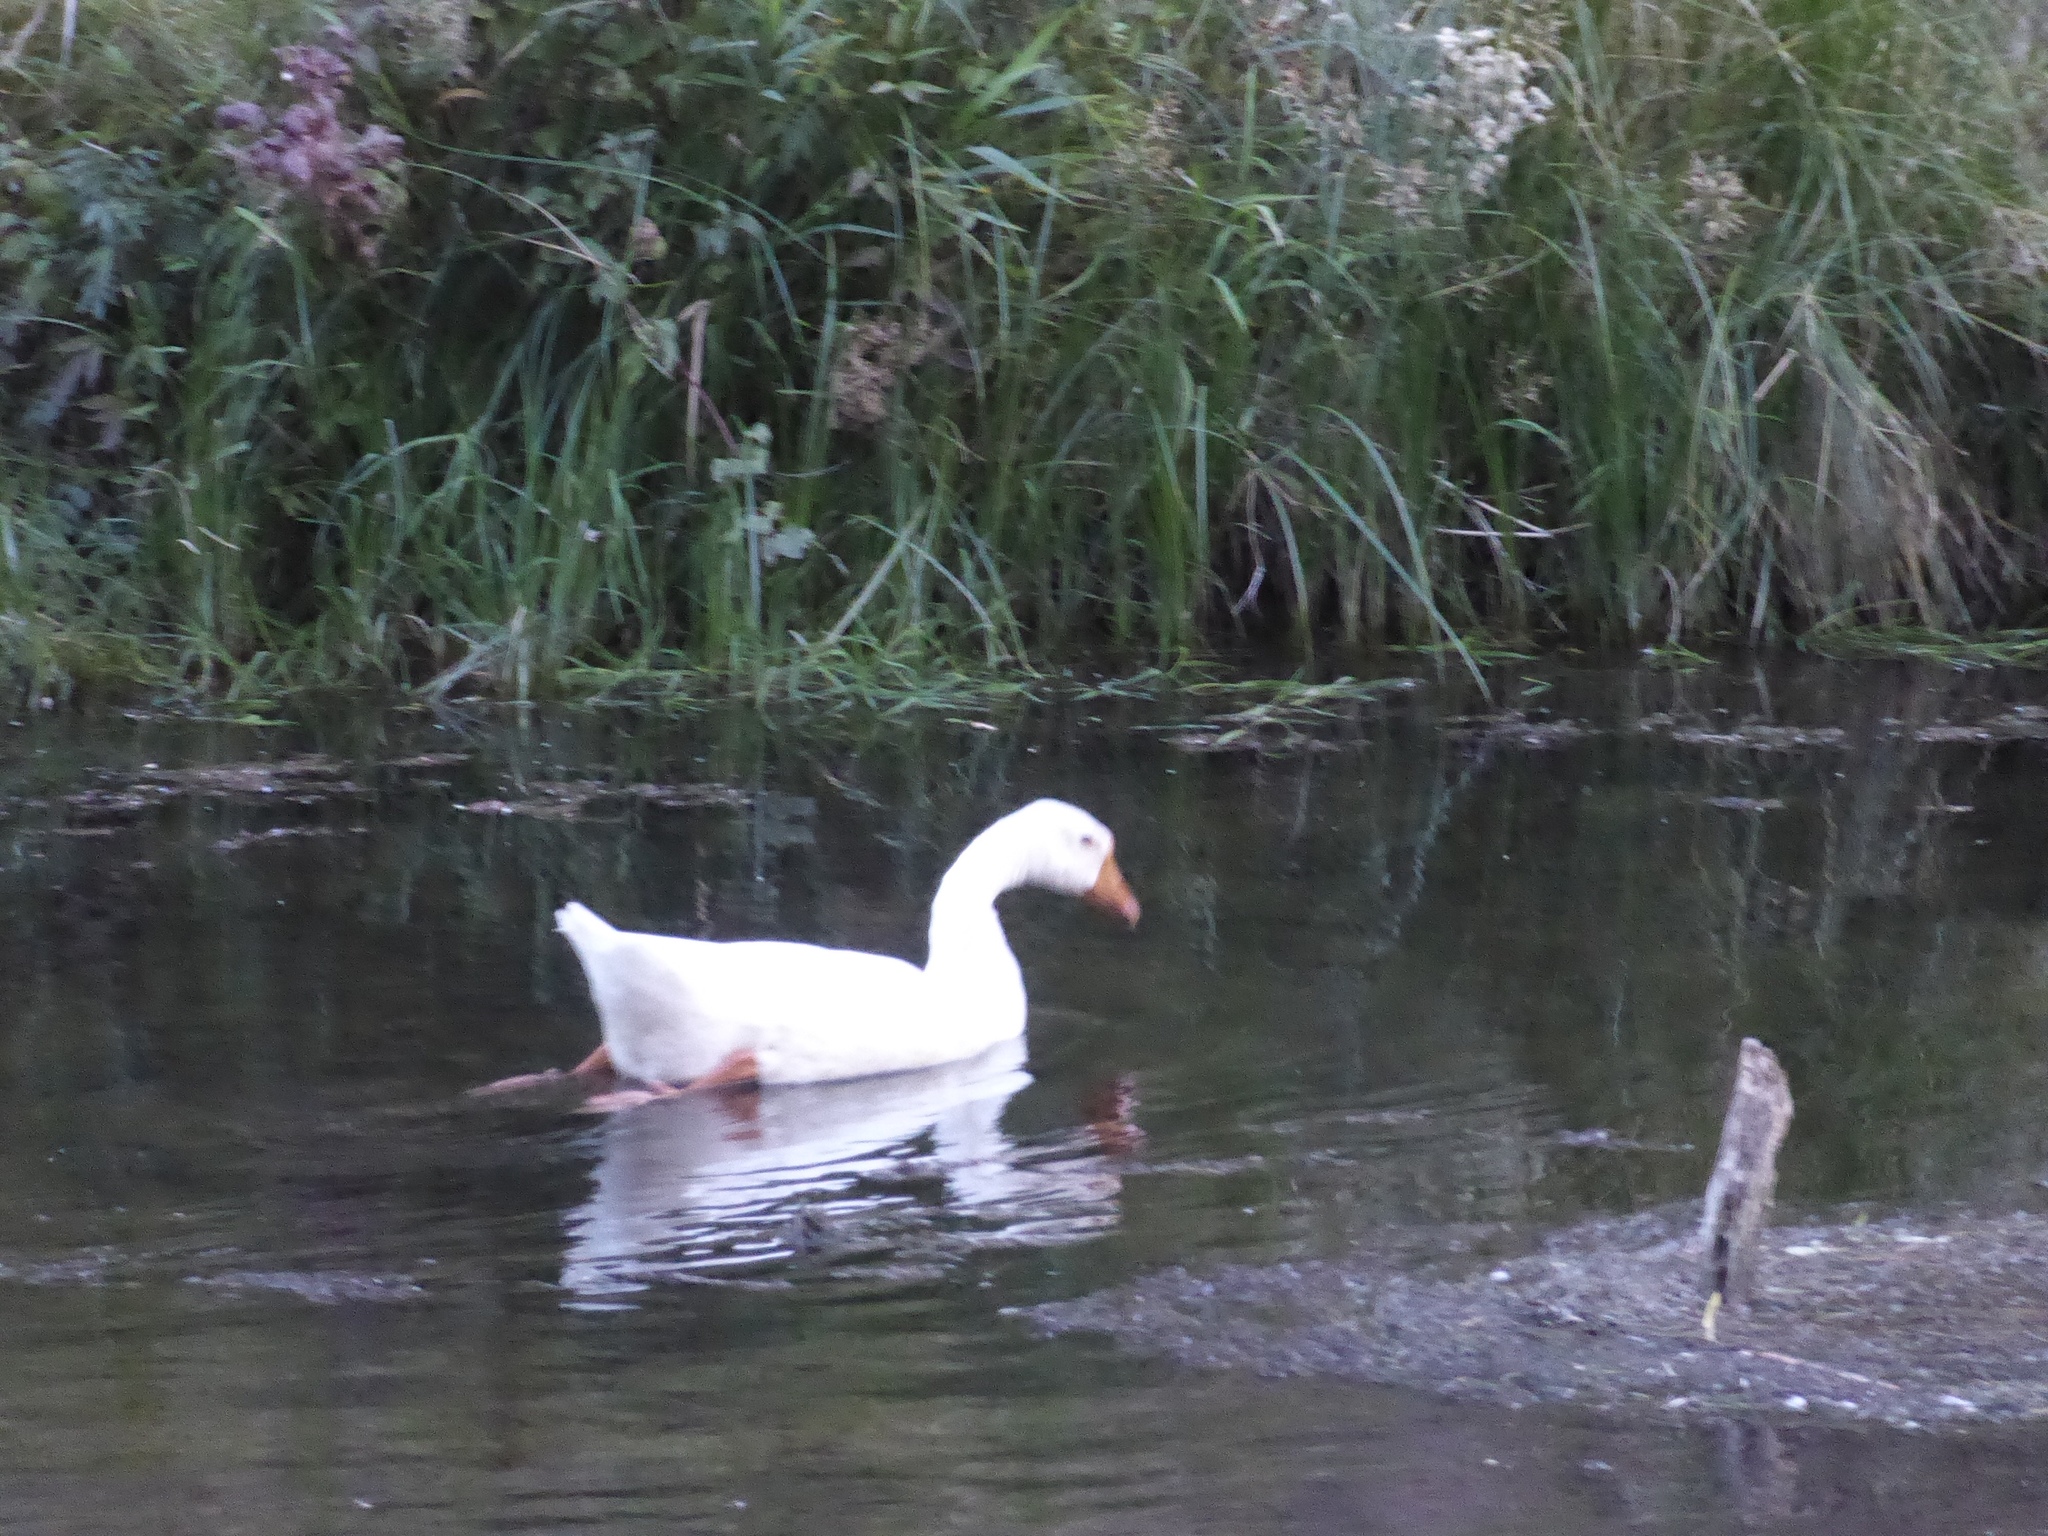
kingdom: Animalia
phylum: Chordata
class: Aves
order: Anseriformes
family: Anatidae
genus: Anas
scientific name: Anas platyrhynchos
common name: Mallard
